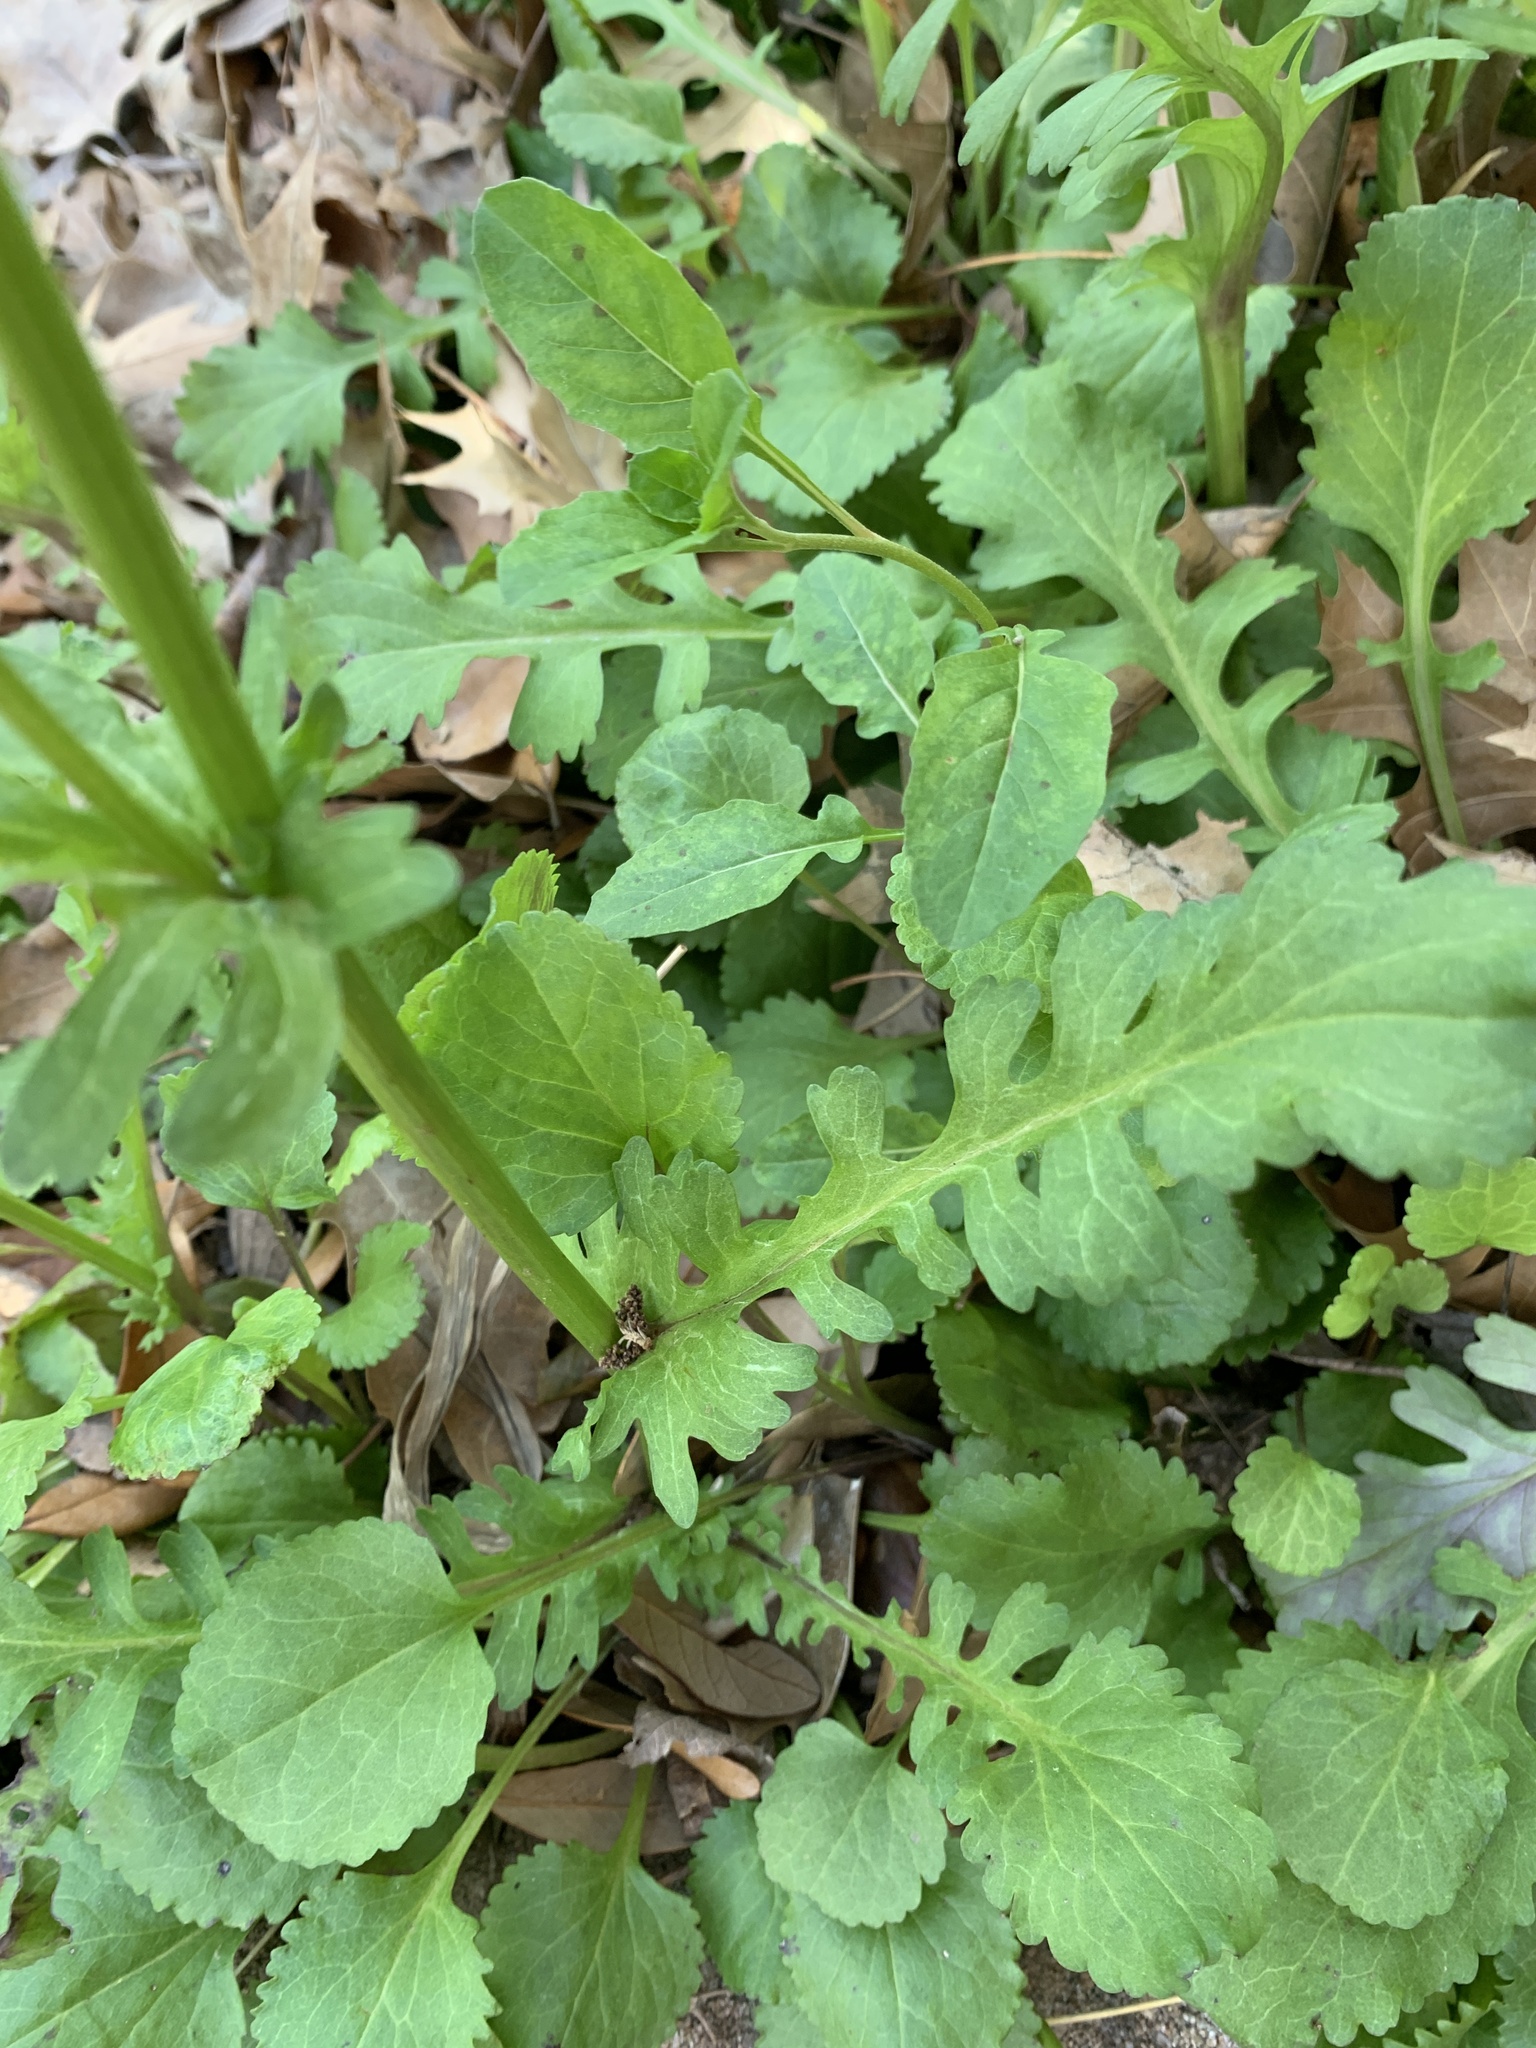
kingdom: Plantae
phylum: Tracheophyta
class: Magnoliopsida
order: Asterales
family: Asteraceae
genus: Packera
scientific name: Packera obovata
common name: Round-leaf ragwort
